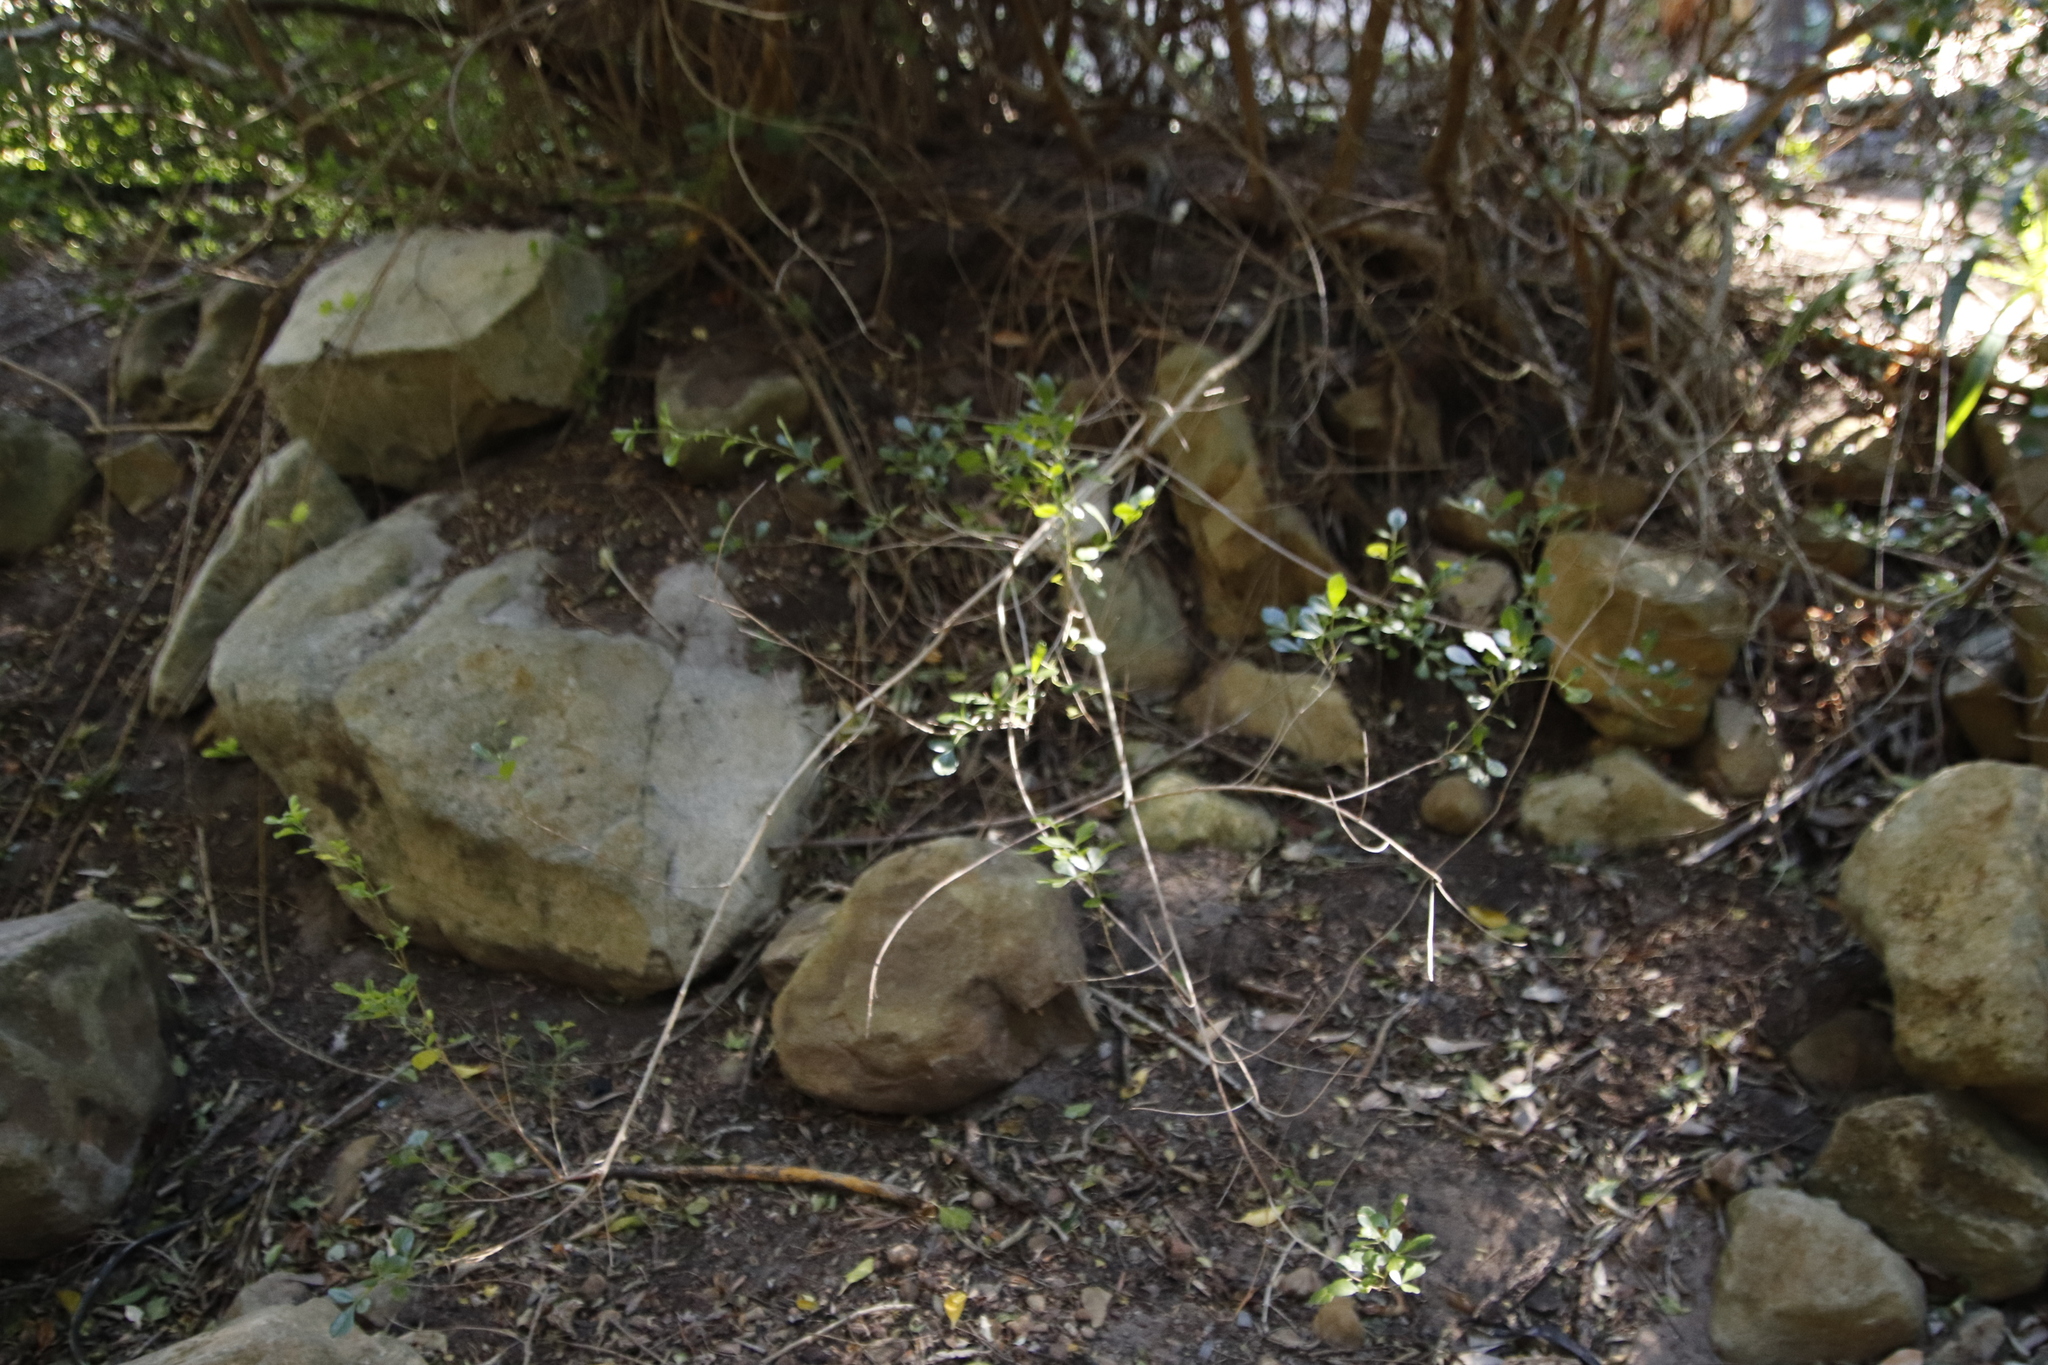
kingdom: Plantae
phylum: Tracheophyta
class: Magnoliopsida
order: Sapindales
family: Anacardiaceae
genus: Searsia
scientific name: Searsia crenata
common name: Crowberry
